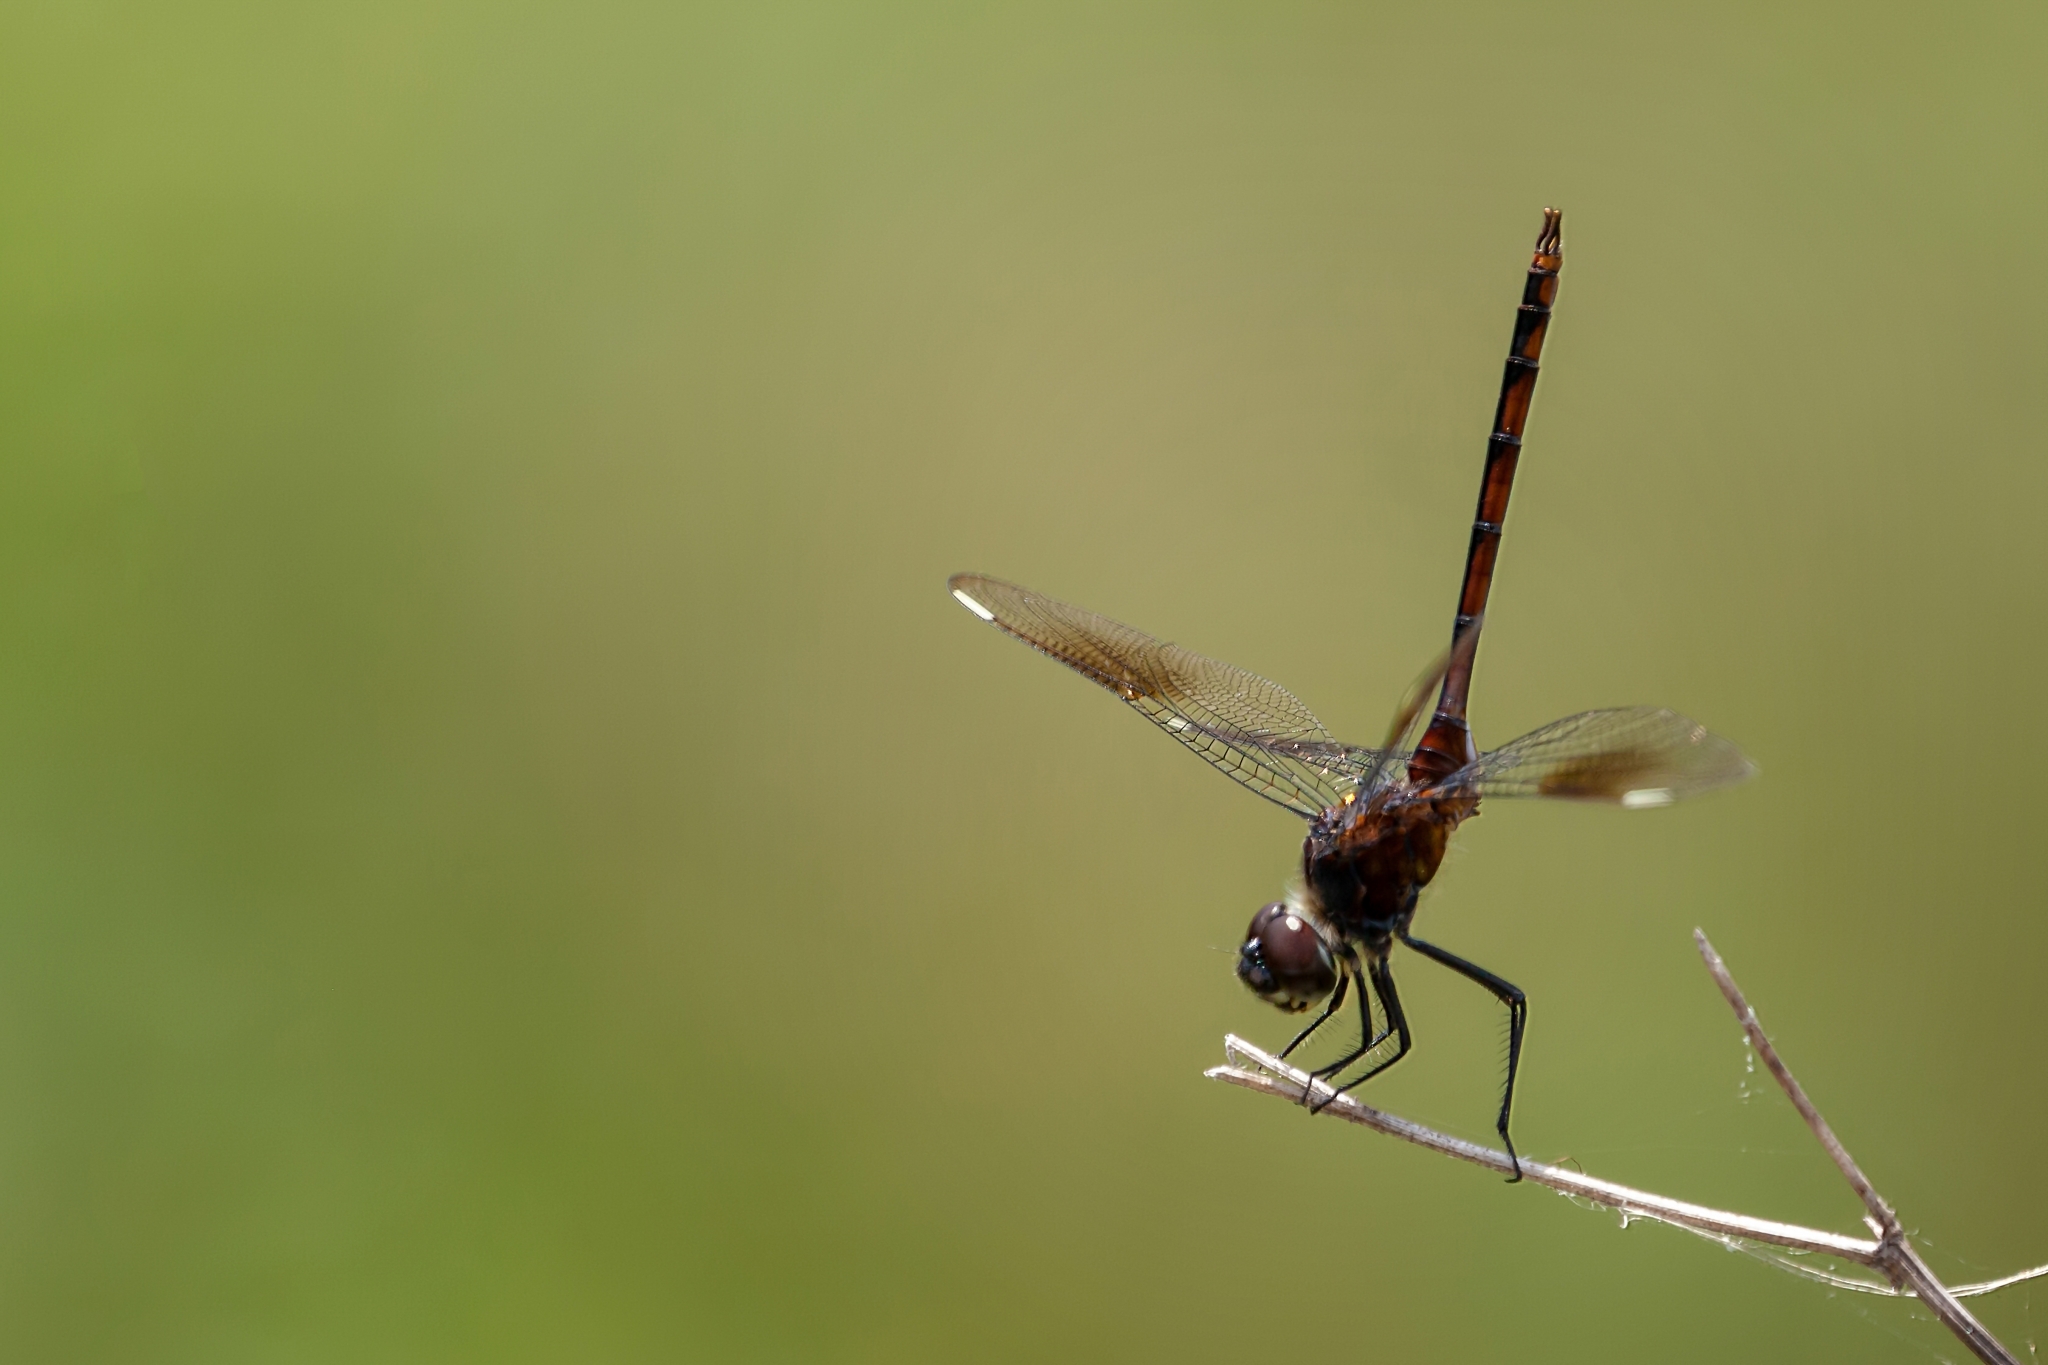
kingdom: Animalia
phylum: Arthropoda
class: Insecta
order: Odonata
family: Libellulidae
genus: Brachymesia
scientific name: Brachymesia gravida
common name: Four-spotted pennant
